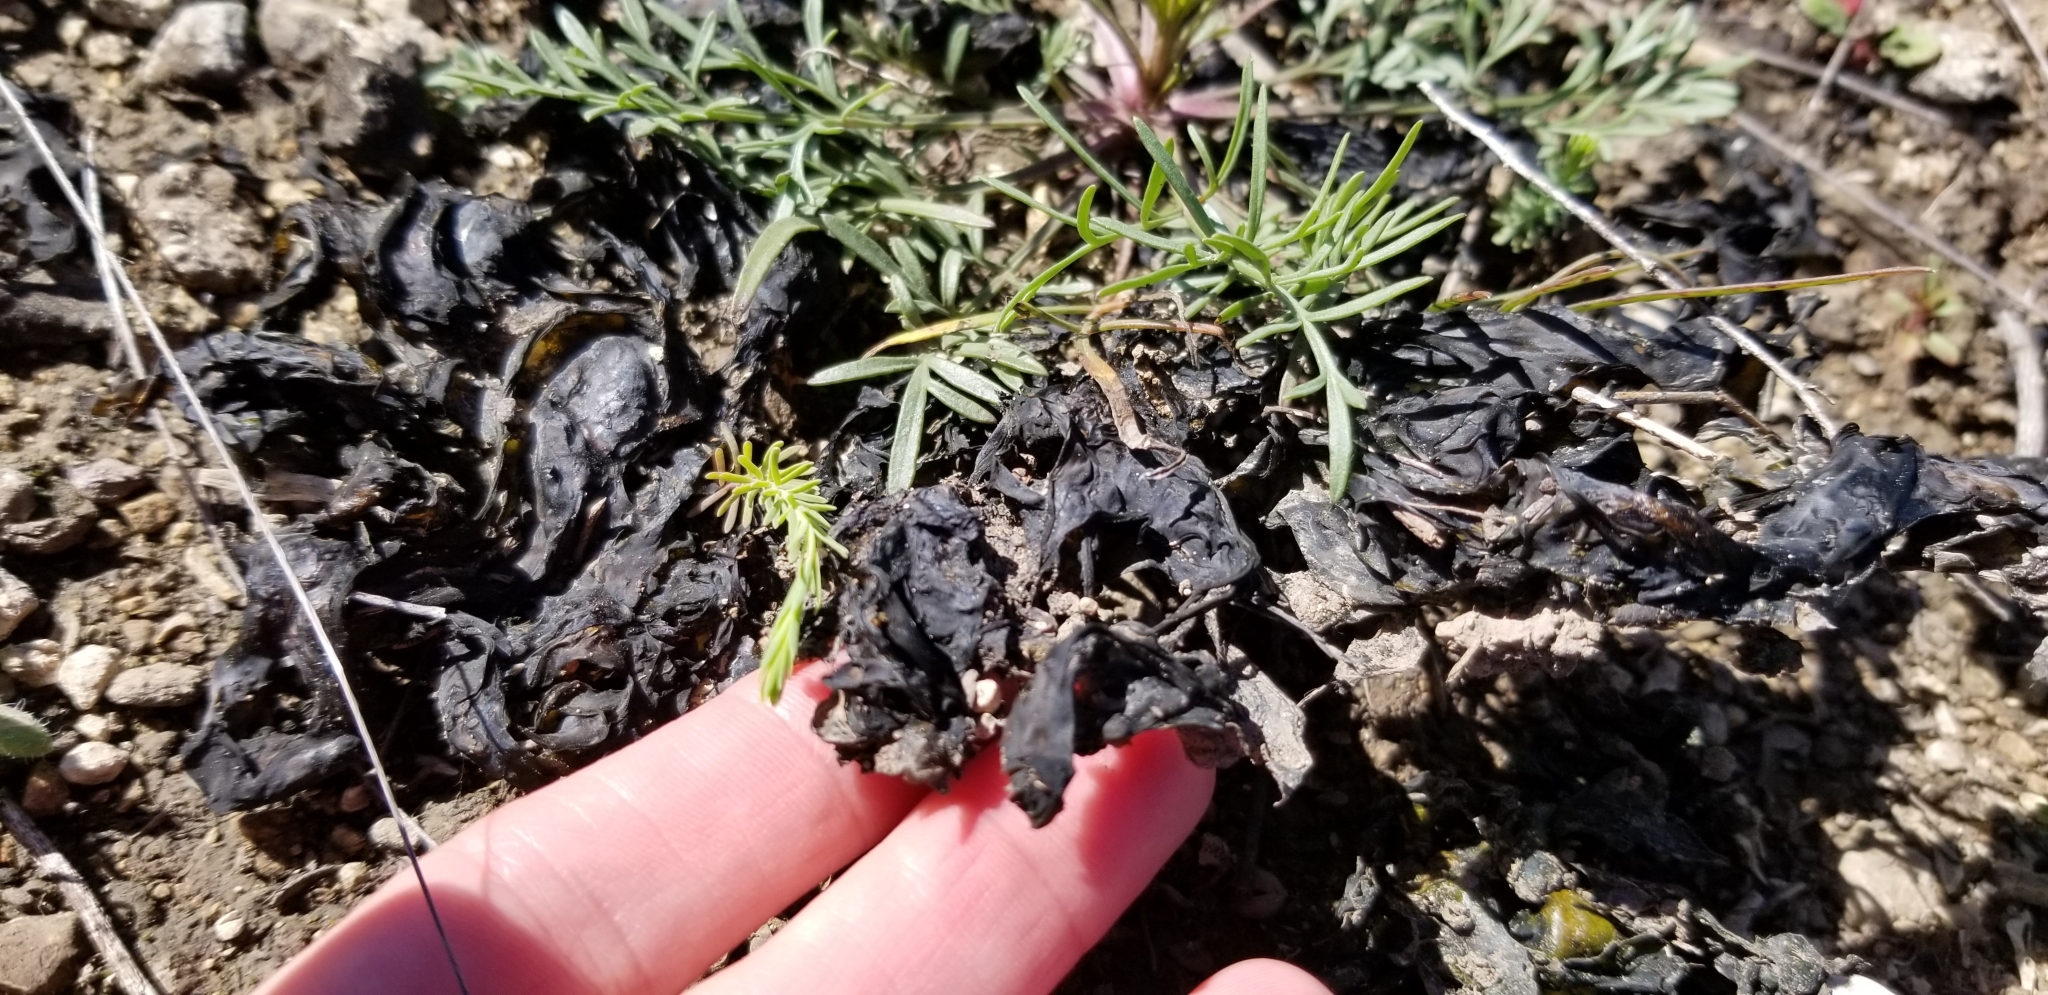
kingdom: Bacteria
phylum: Cyanobacteria
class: Cyanobacteriia
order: Cyanobacteriales
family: Nostocaceae
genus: Nostoc
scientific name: Nostoc commune
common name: Star jelly
